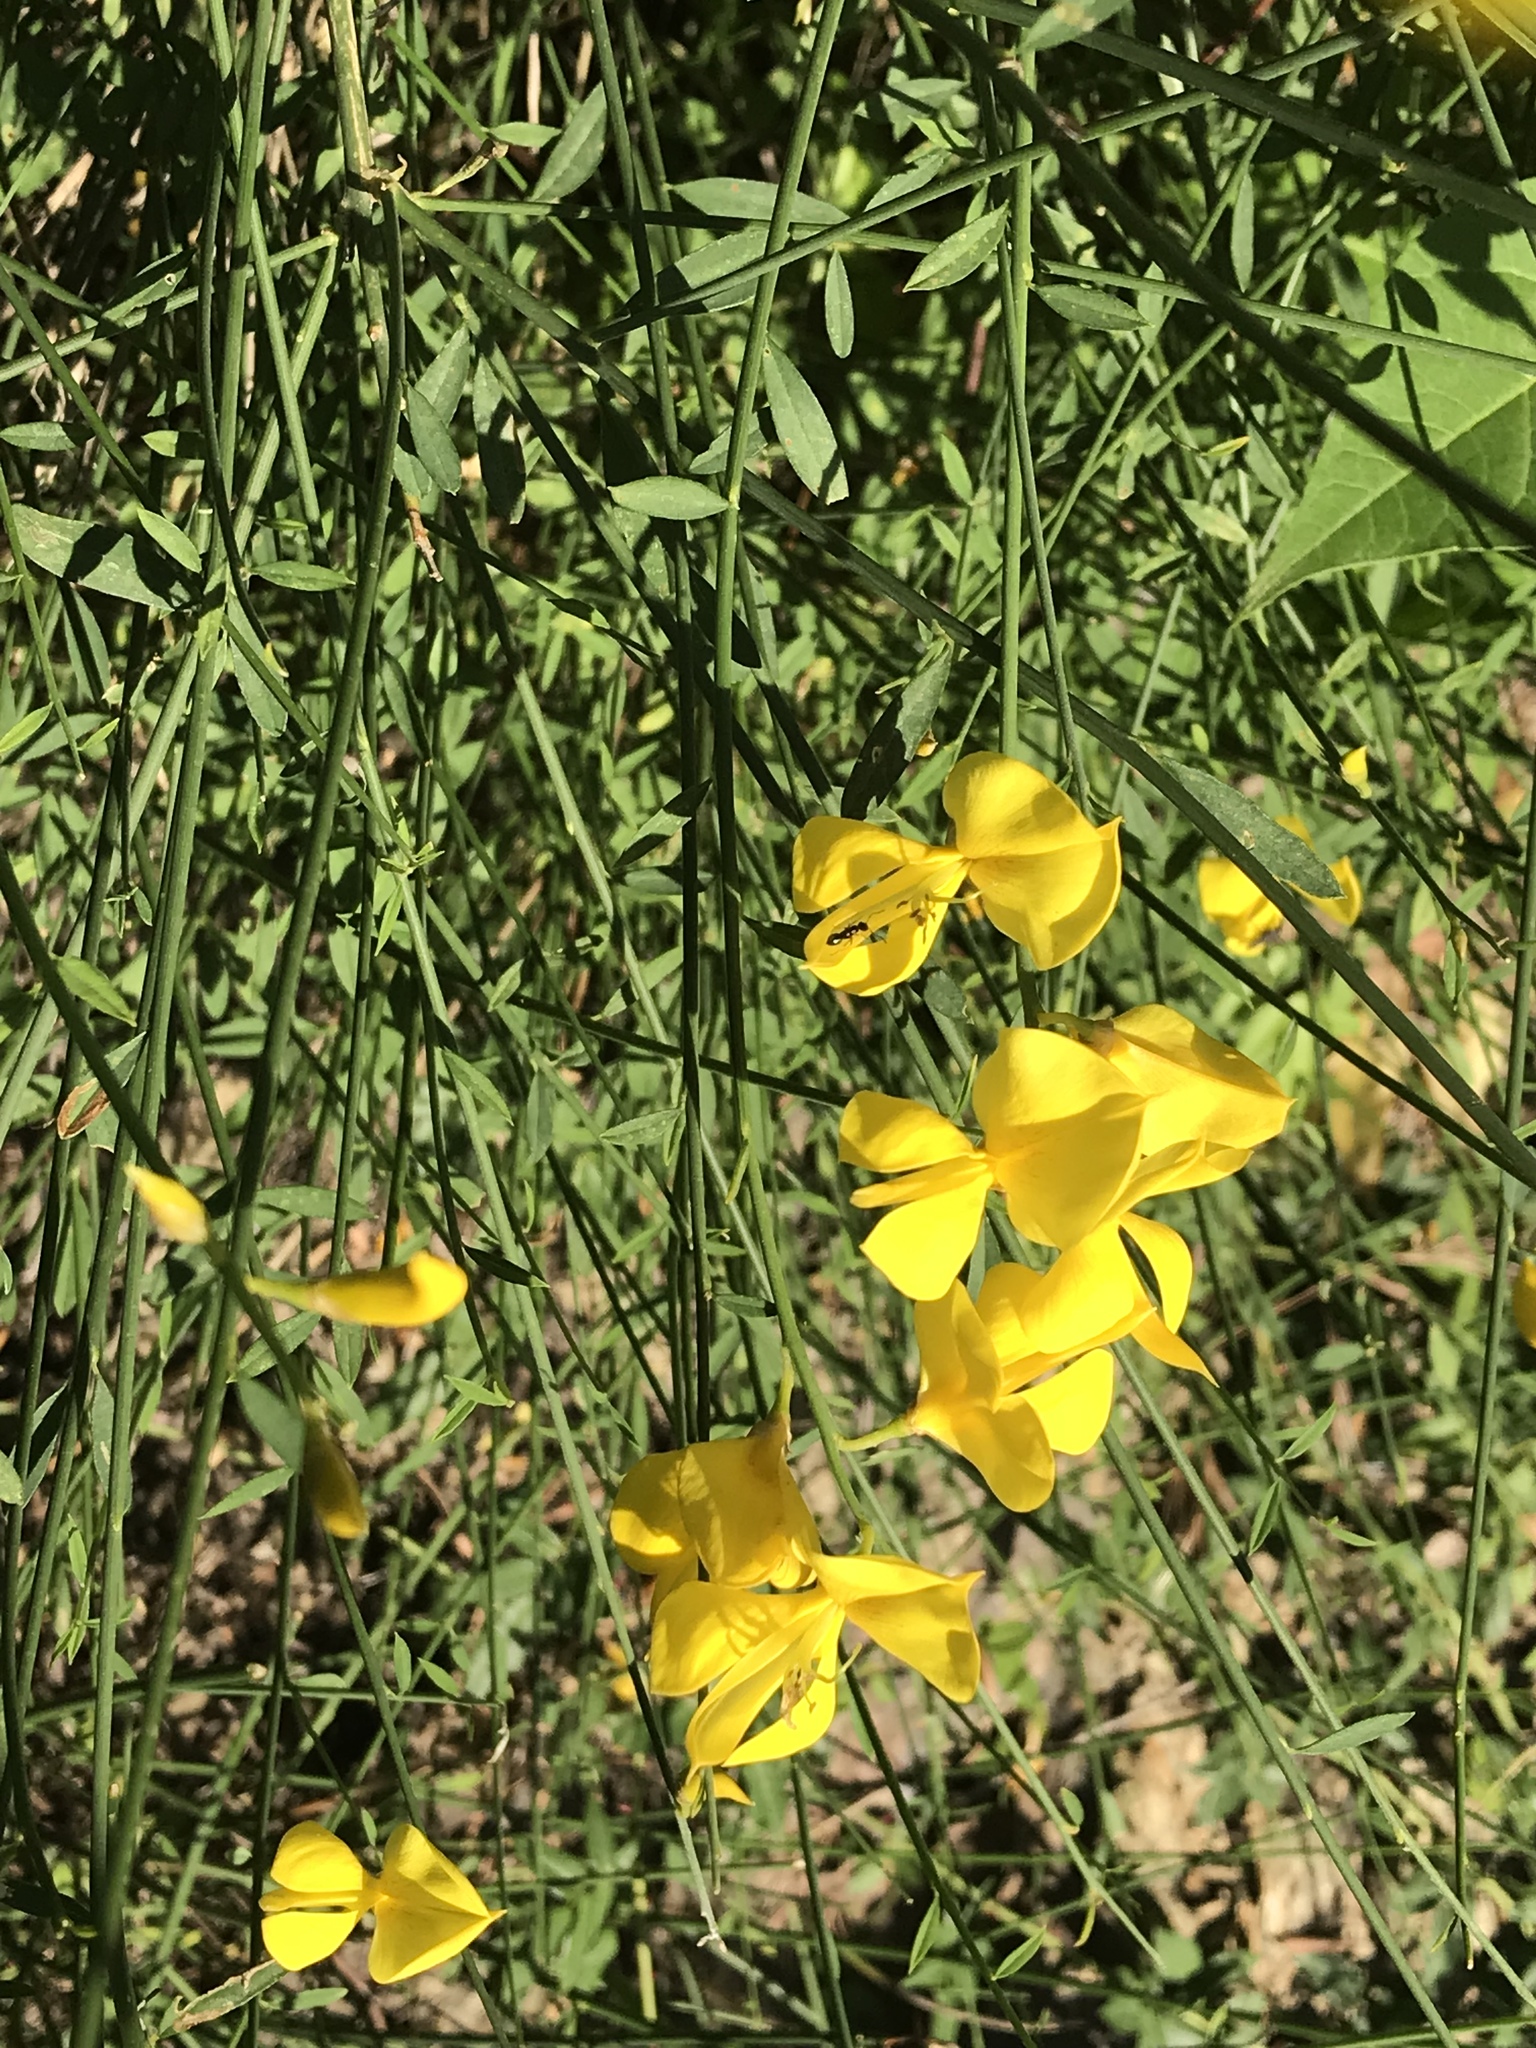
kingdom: Plantae
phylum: Tracheophyta
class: Magnoliopsida
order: Fabales
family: Fabaceae
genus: Cytisus
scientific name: Cytisus scoparius
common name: Scotch broom
